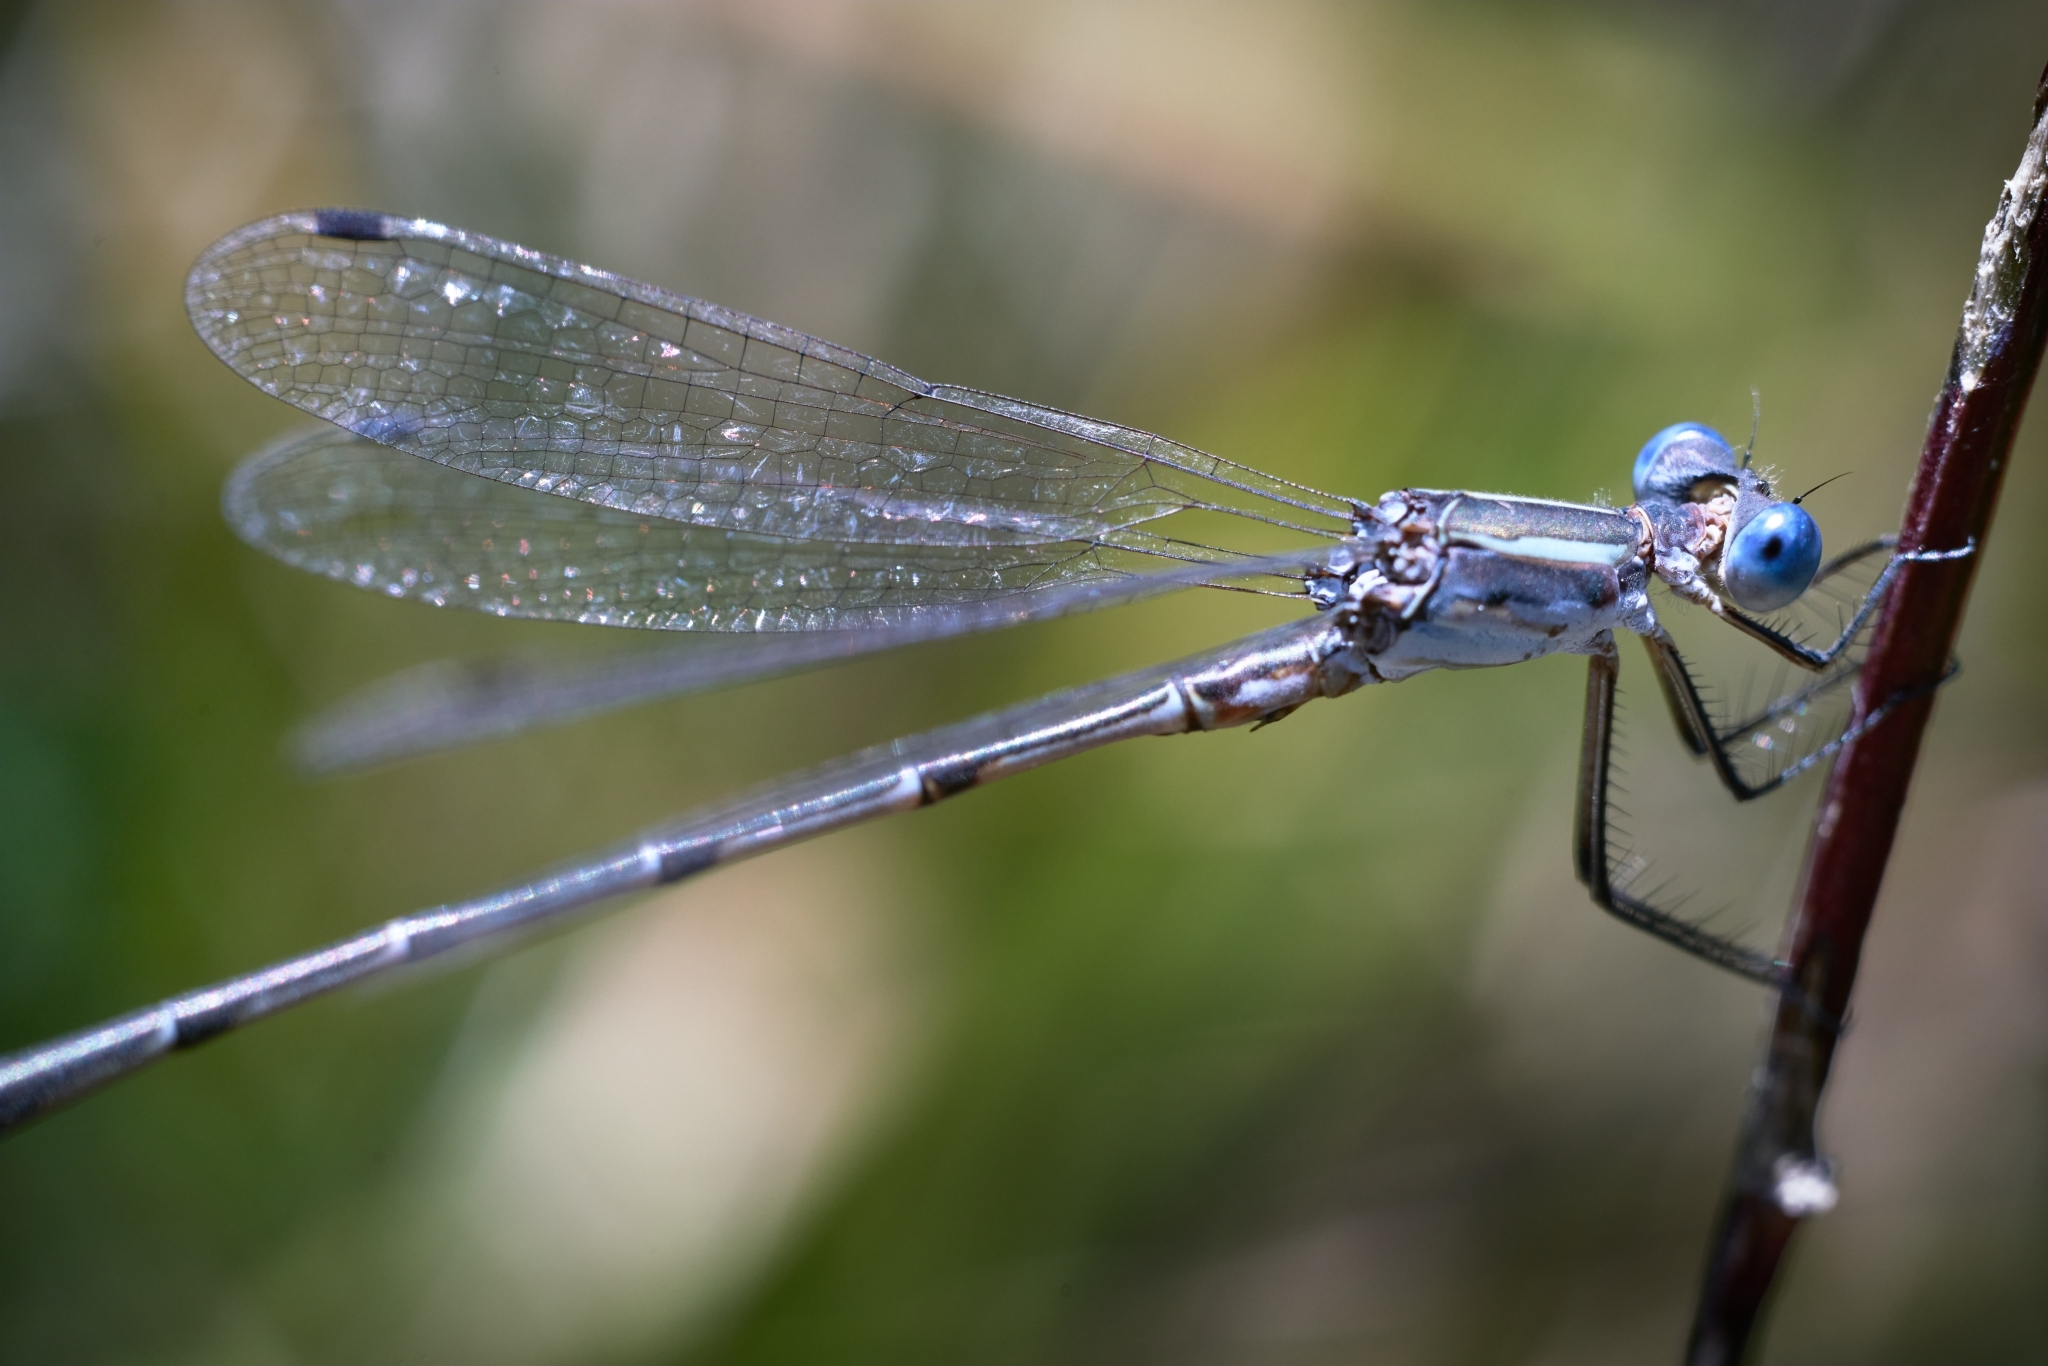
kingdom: Animalia
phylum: Arthropoda
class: Insecta
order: Odonata
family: Lestidae
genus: Lestes
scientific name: Lestes australis
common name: Southern spreadwing
